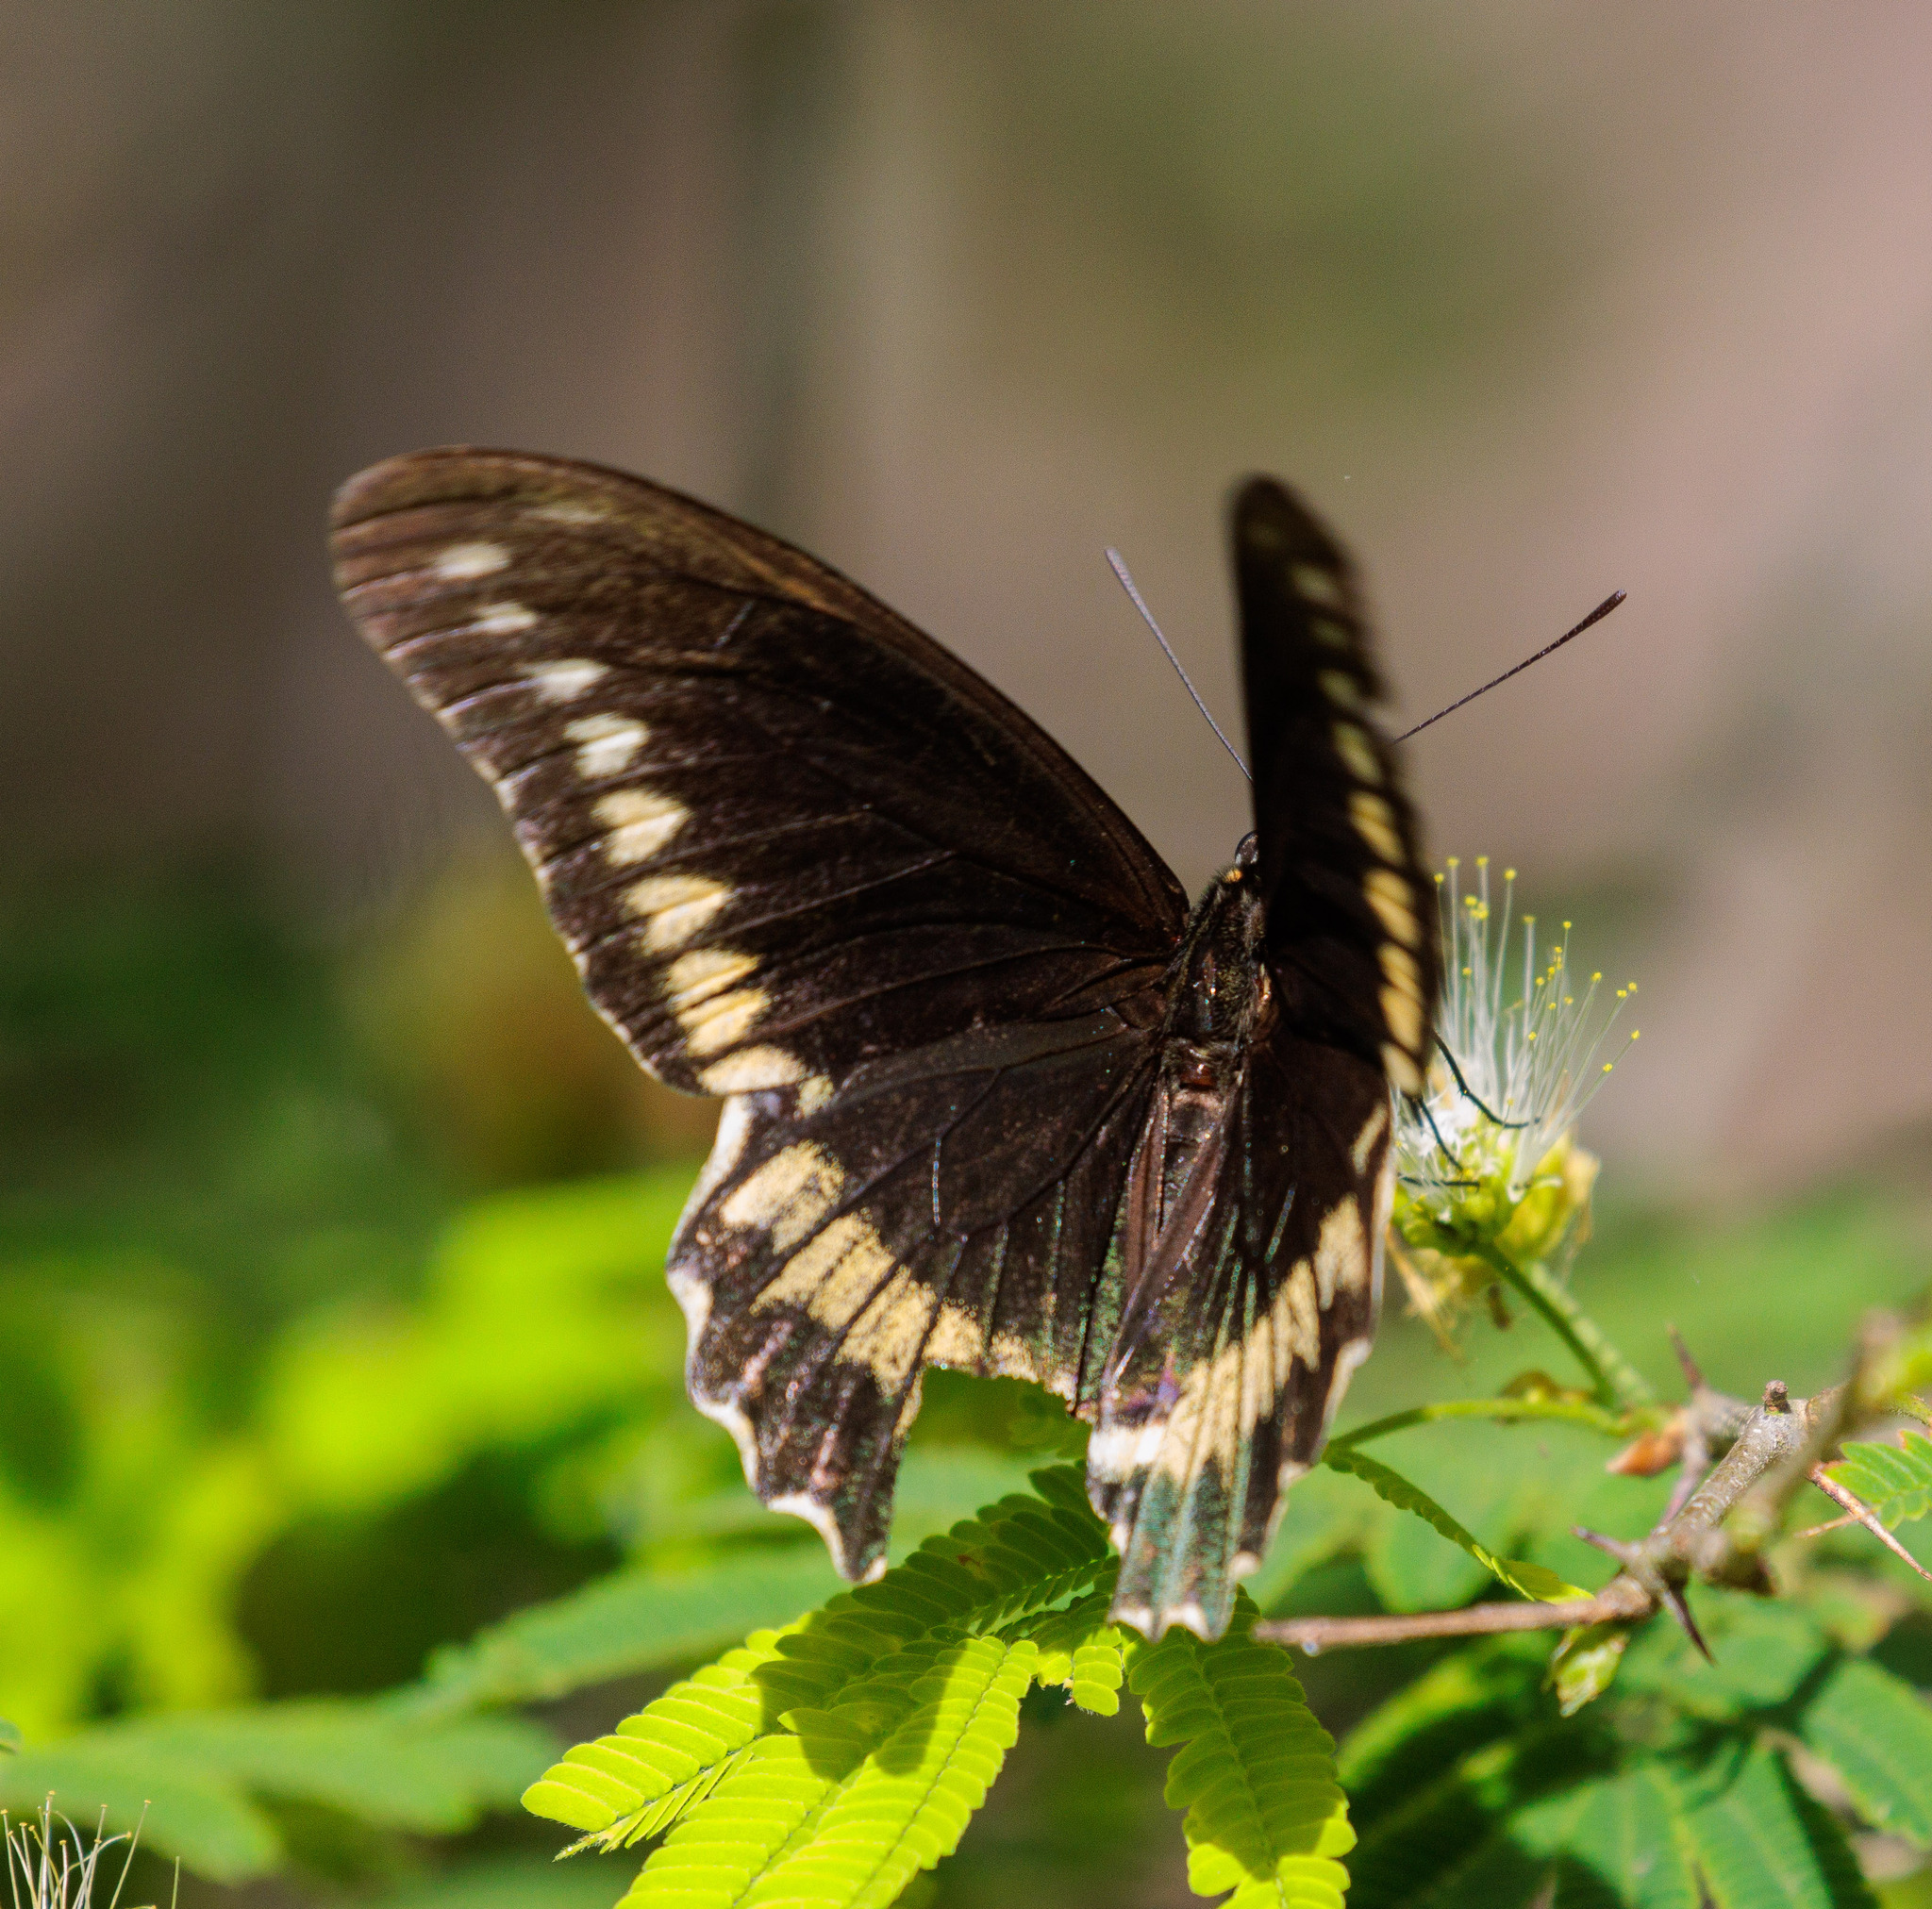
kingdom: Animalia
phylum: Arthropoda
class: Insecta
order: Lepidoptera
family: Papilionidae
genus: Battus
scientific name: Battus polydamas
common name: Polydamas swallowtail
